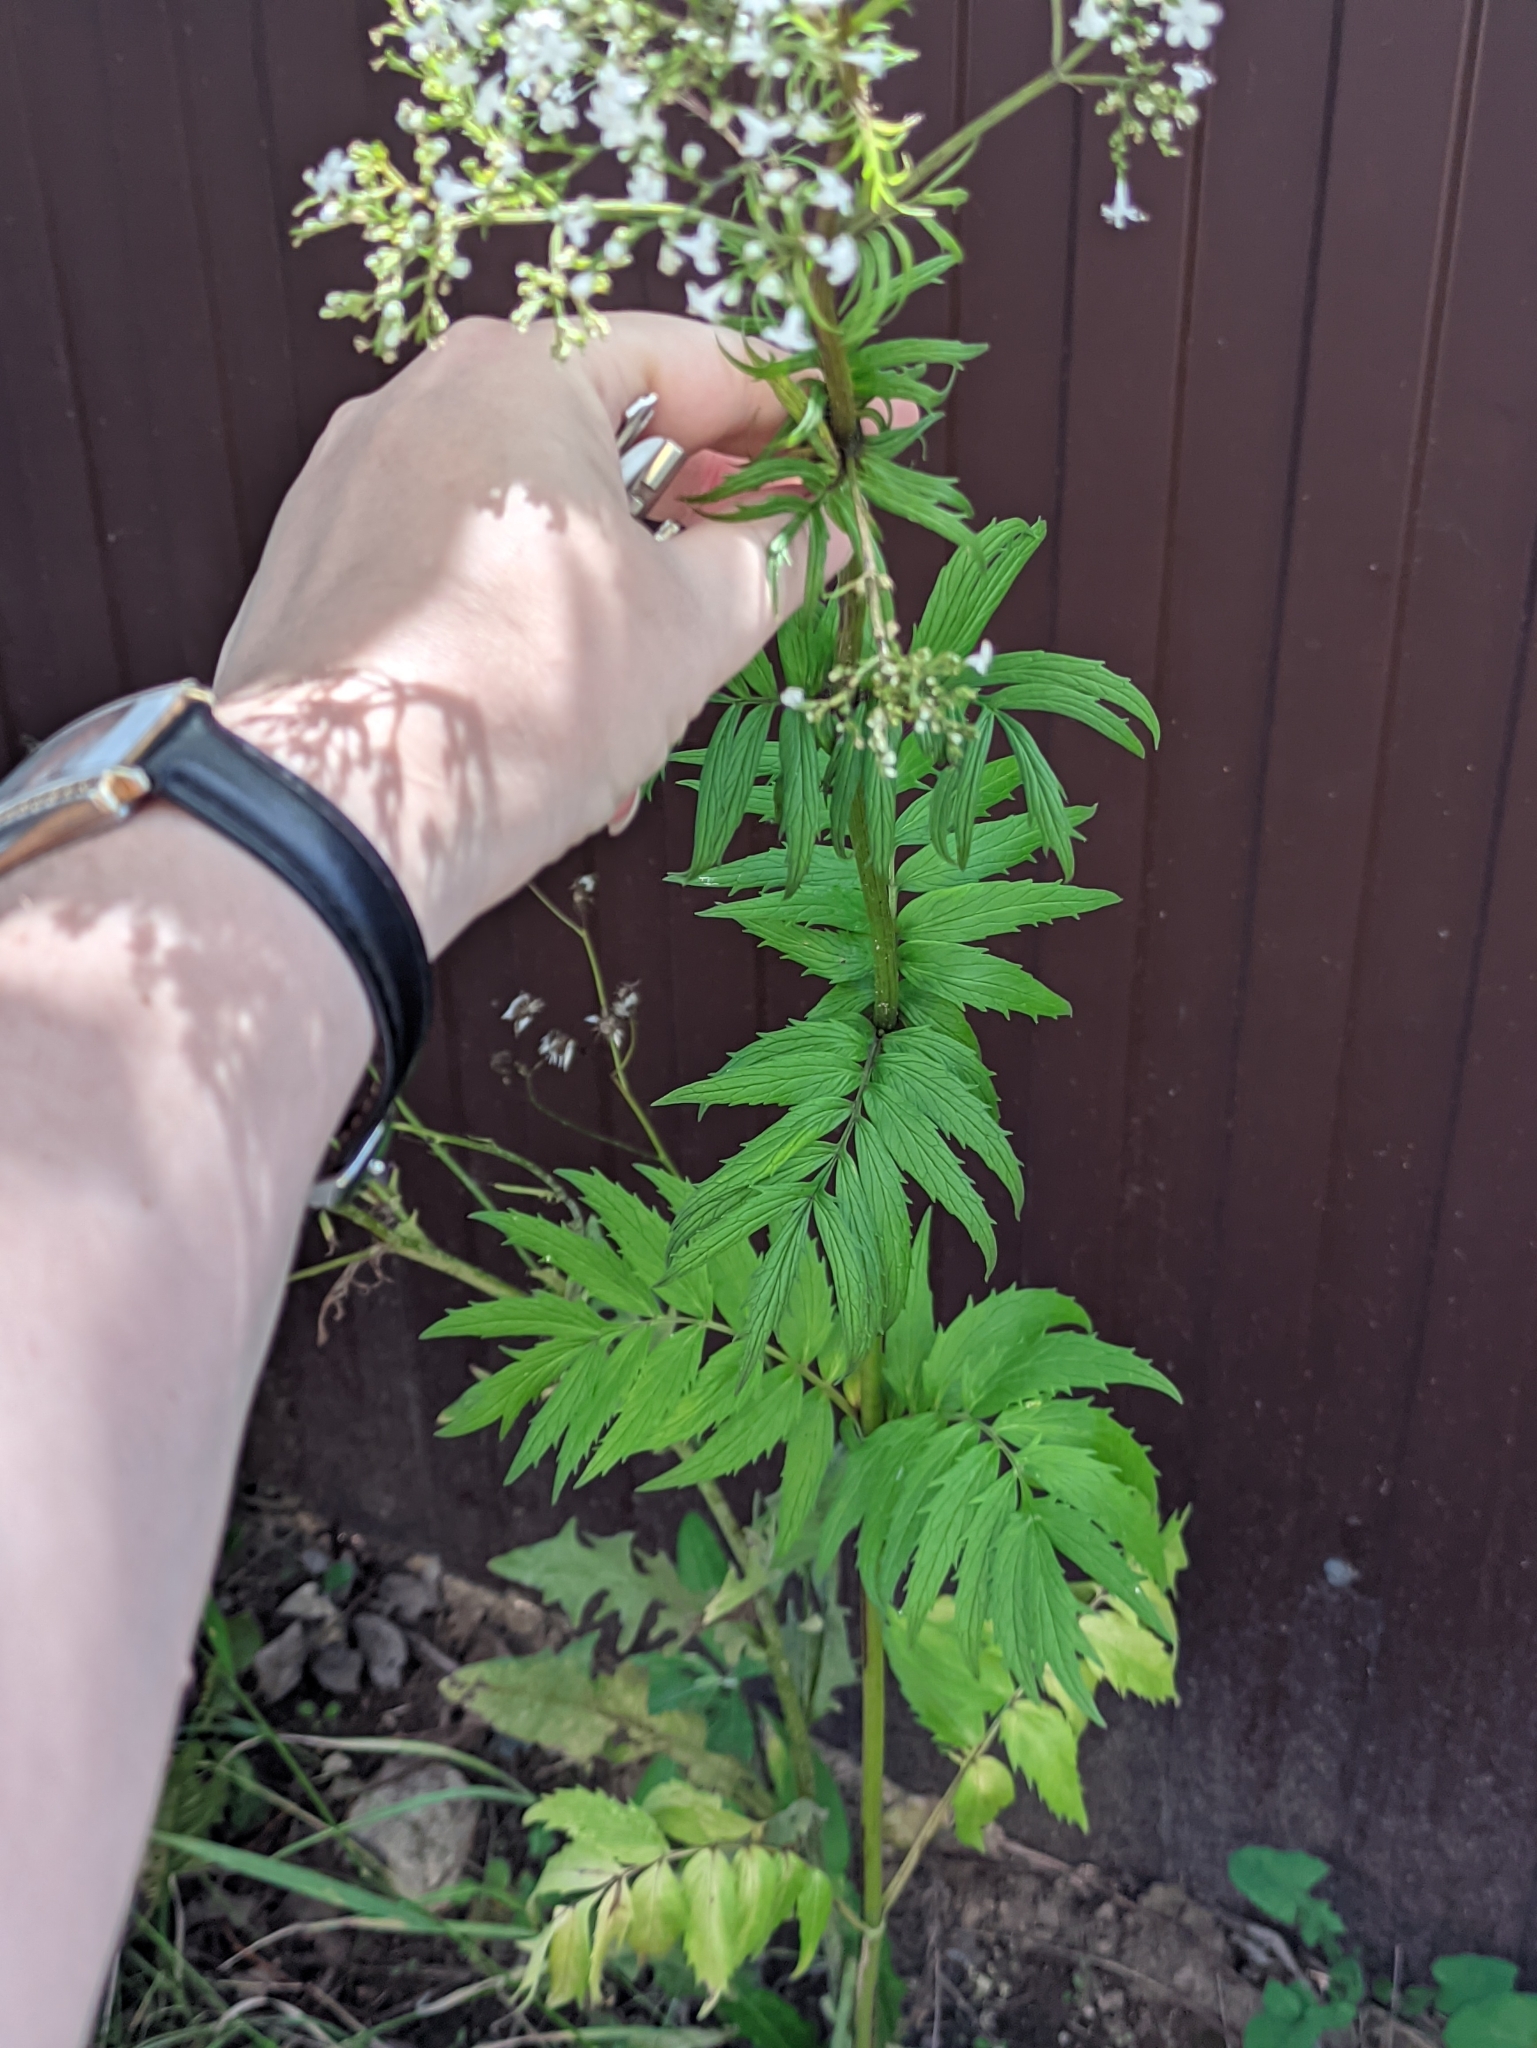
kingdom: Plantae
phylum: Tracheophyta
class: Magnoliopsida
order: Dipsacales
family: Caprifoliaceae
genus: Valeriana
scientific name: Valeriana officinalis
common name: Common valerian
